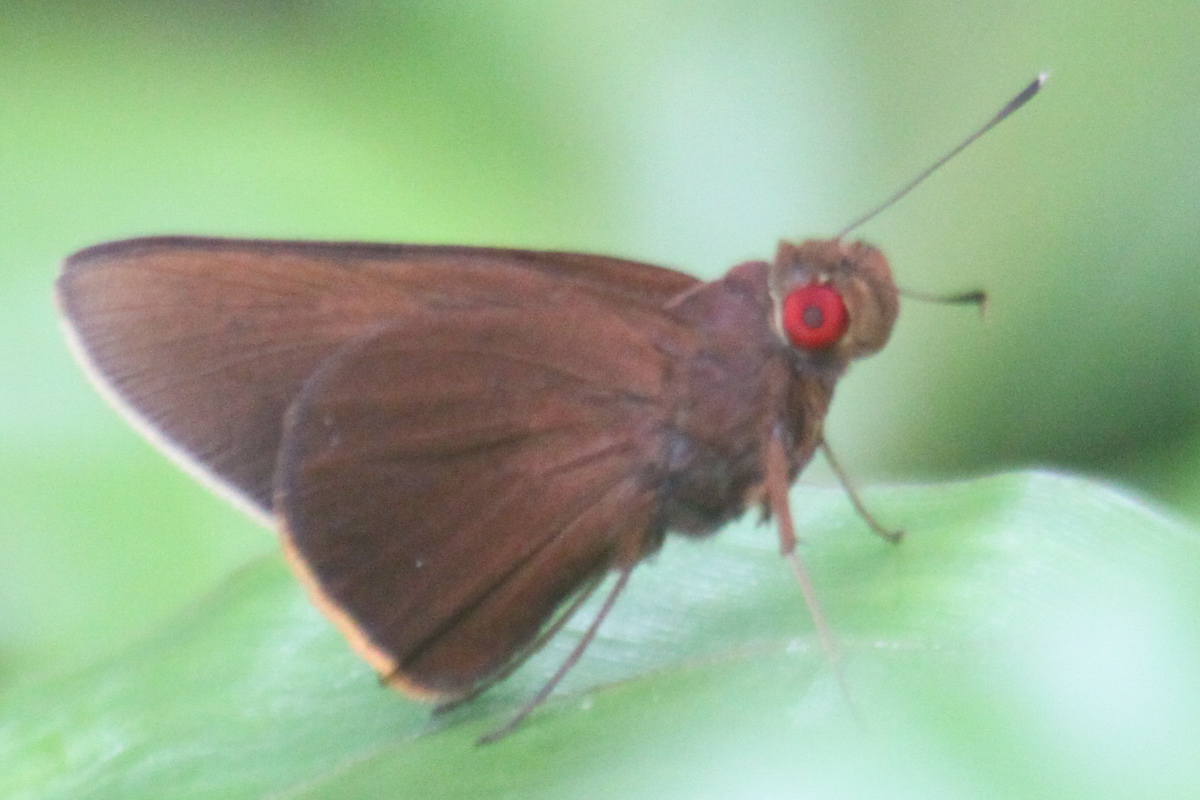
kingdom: Animalia
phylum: Arthropoda
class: Insecta
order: Lepidoptera
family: Hesperiidae
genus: Matapa
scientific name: Matapa druna
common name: Grey-brand redeye
